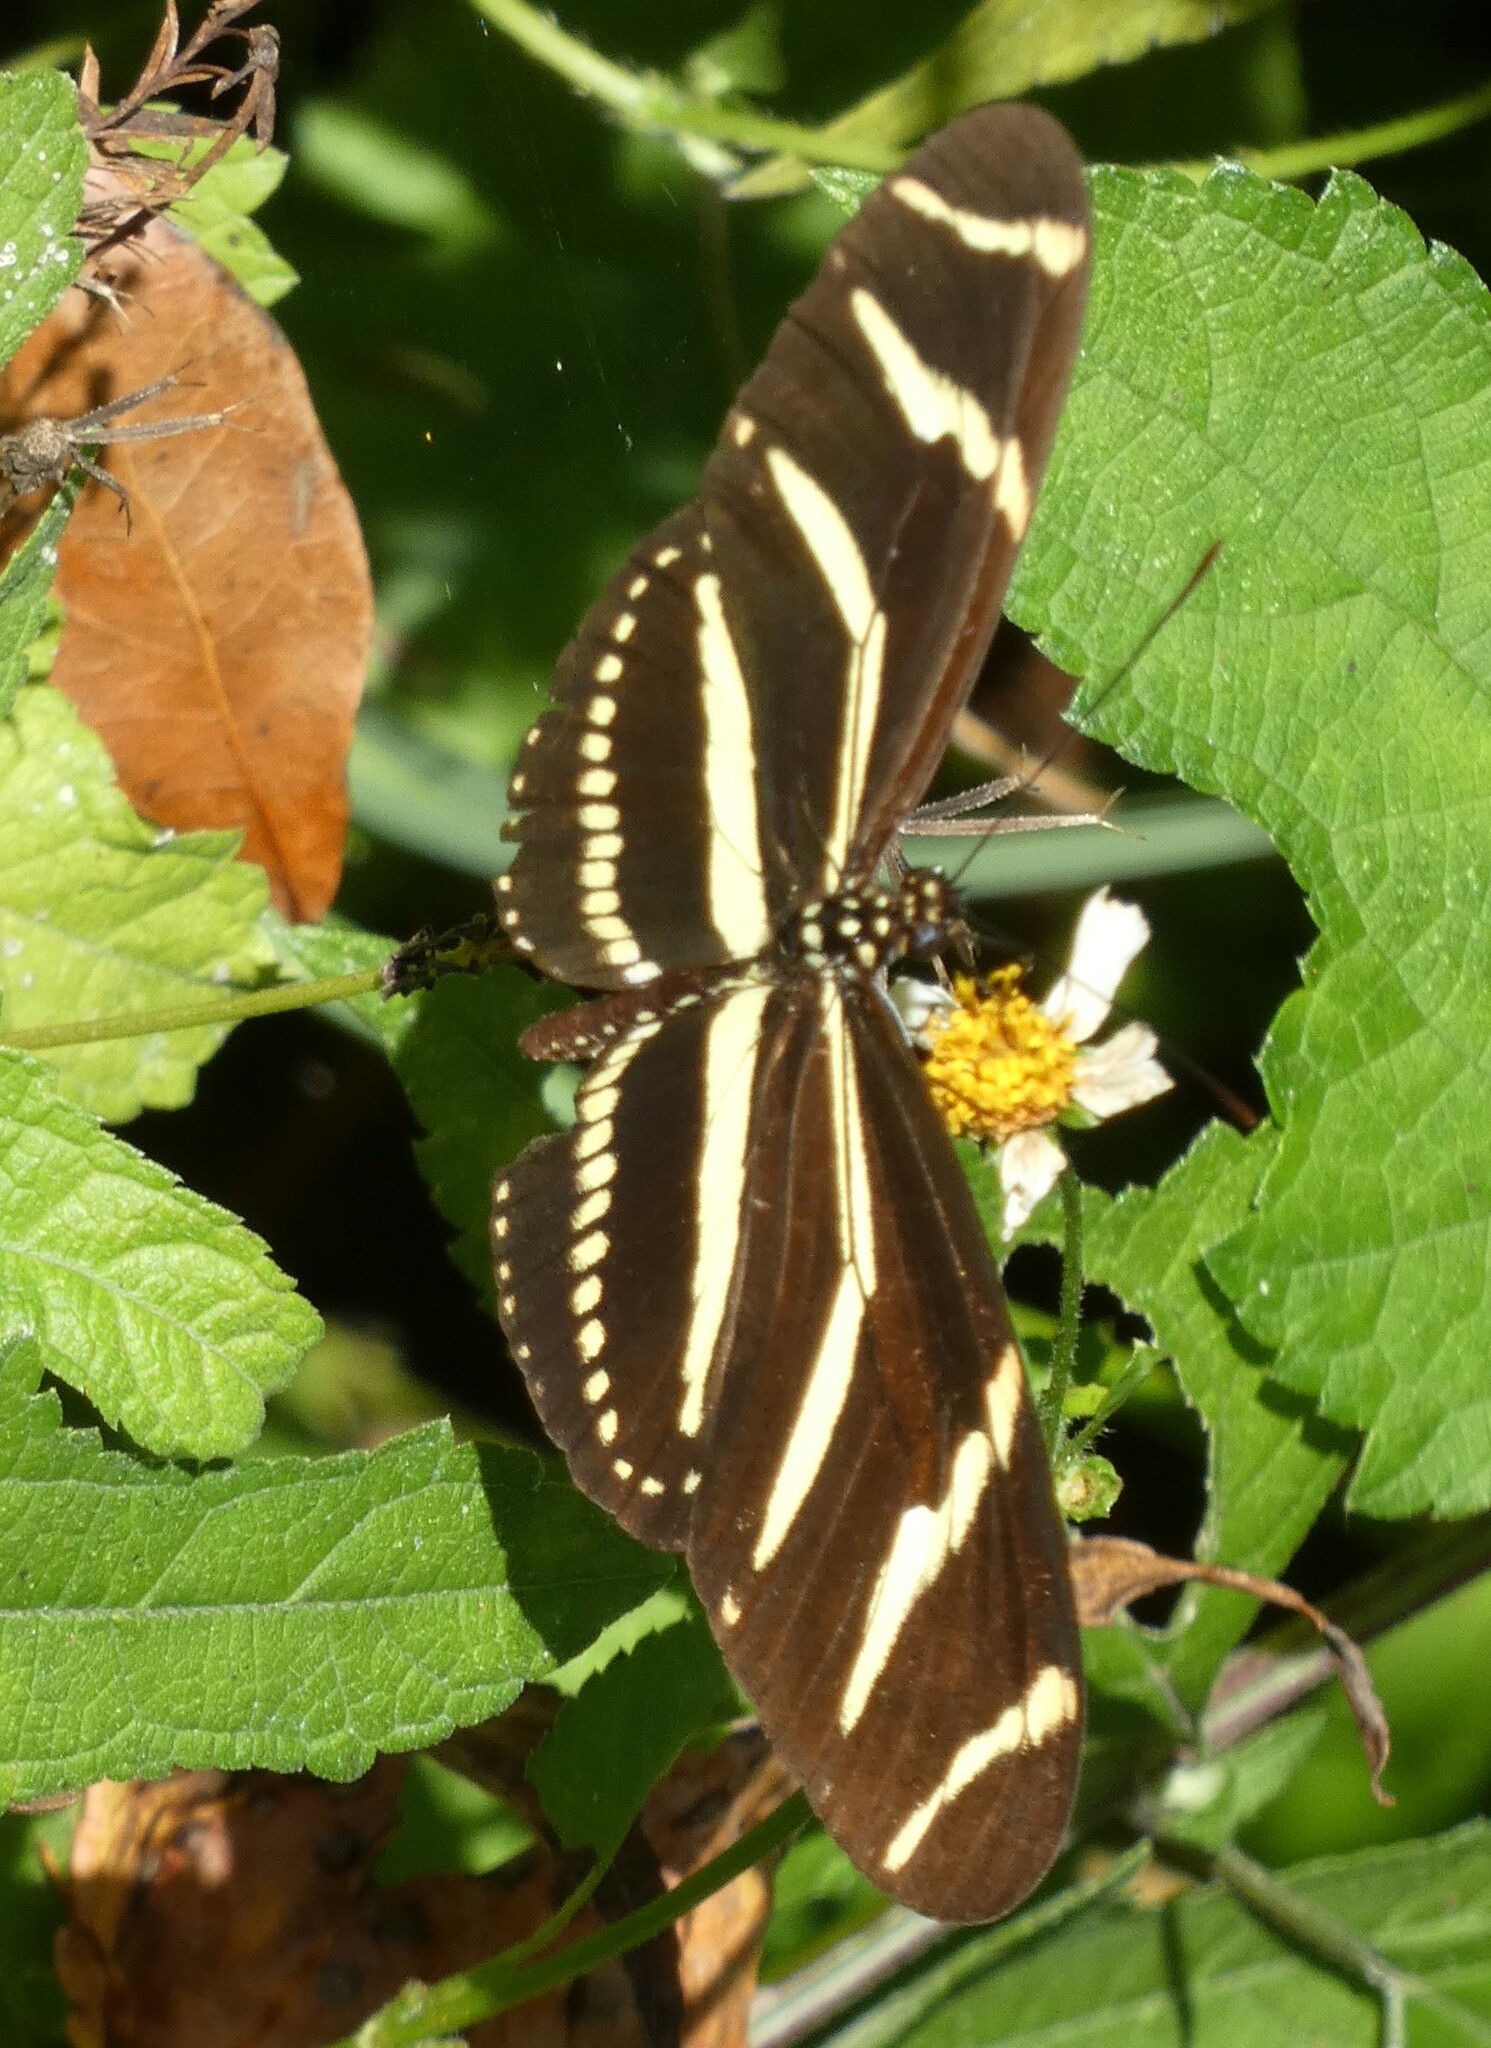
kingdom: Animalia
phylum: Arthropoda
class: Insecta
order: Lepidoptera
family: Nymphalidae
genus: Heliconius
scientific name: Heliconius charithonia
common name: Zebra long wing
